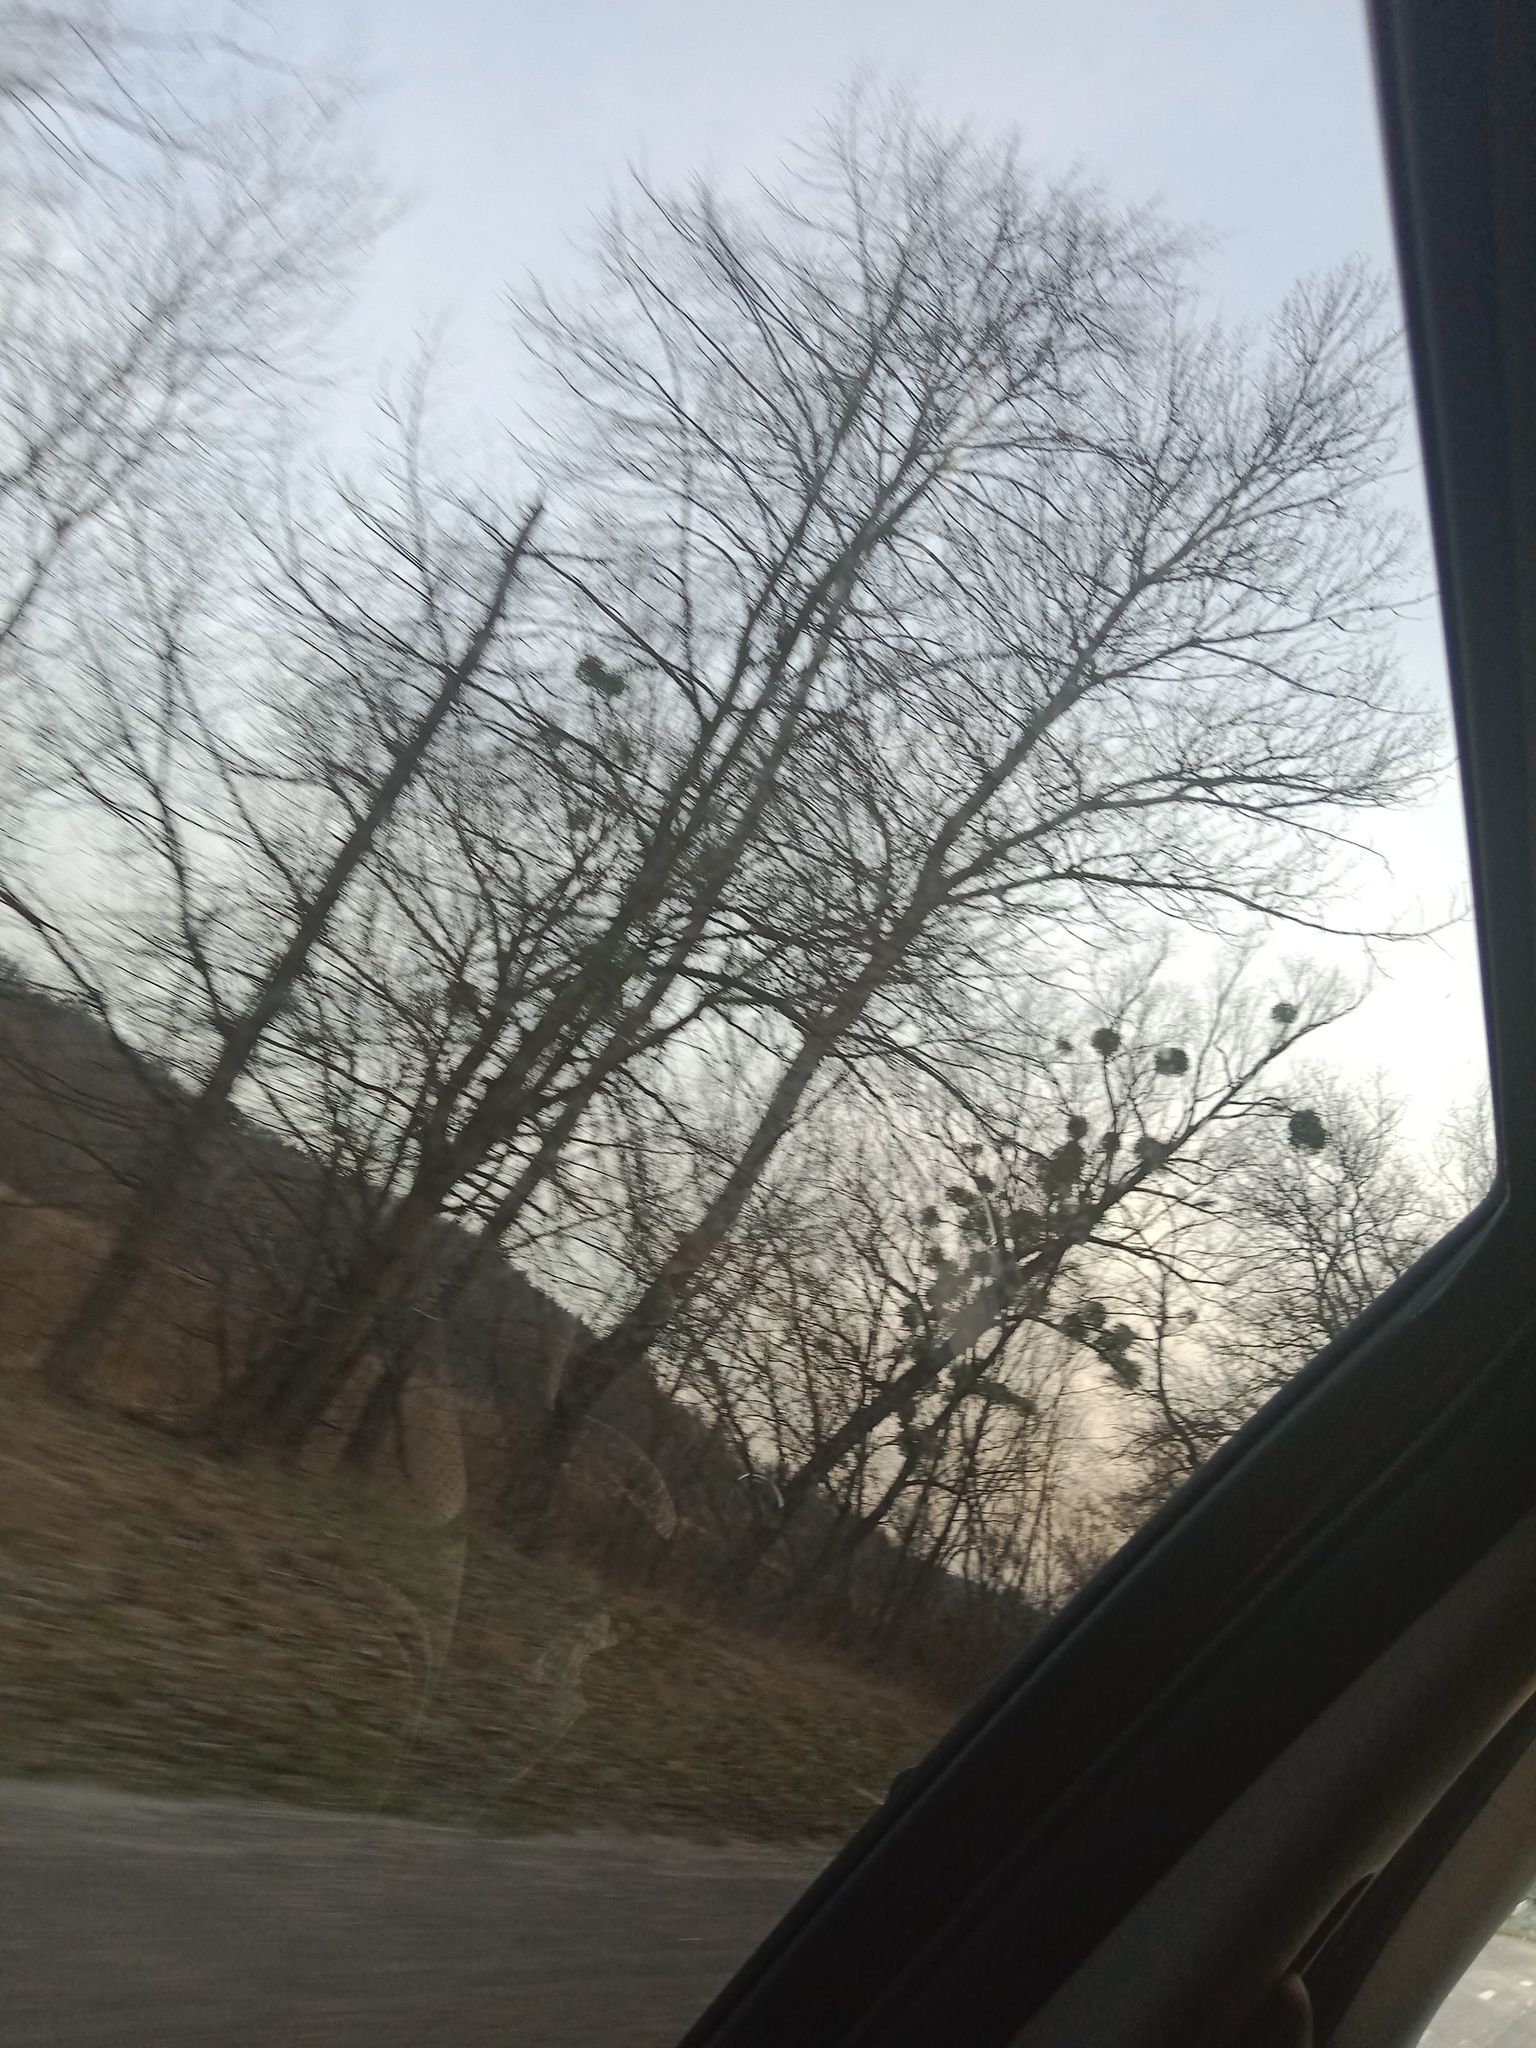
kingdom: Plantae
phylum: Tracheophyta
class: Magnoliopsida
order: Santalales
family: Viscaceae
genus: Viscum
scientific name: Viscum album
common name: Mistletoe
